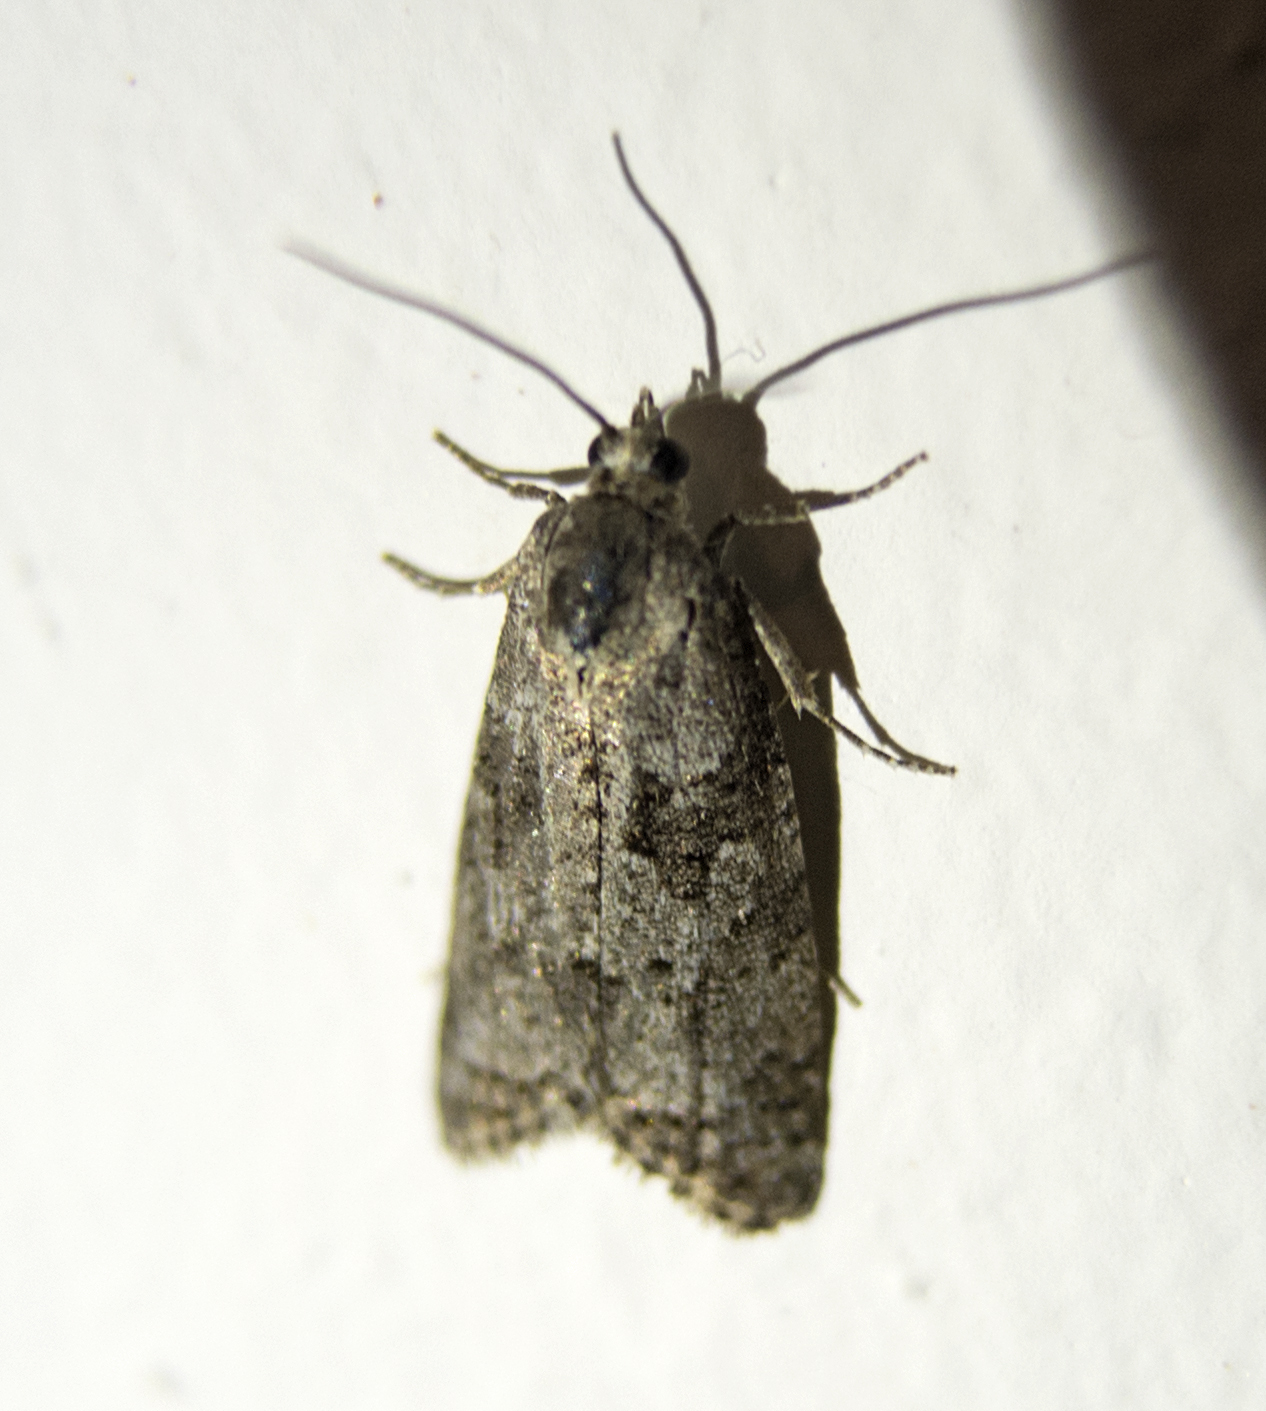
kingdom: Animalia
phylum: Arthropoda
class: Insecta
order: Lepidoptera
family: Tortricidae
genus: Cnephasia
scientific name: Cnephasia communana
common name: May shade
